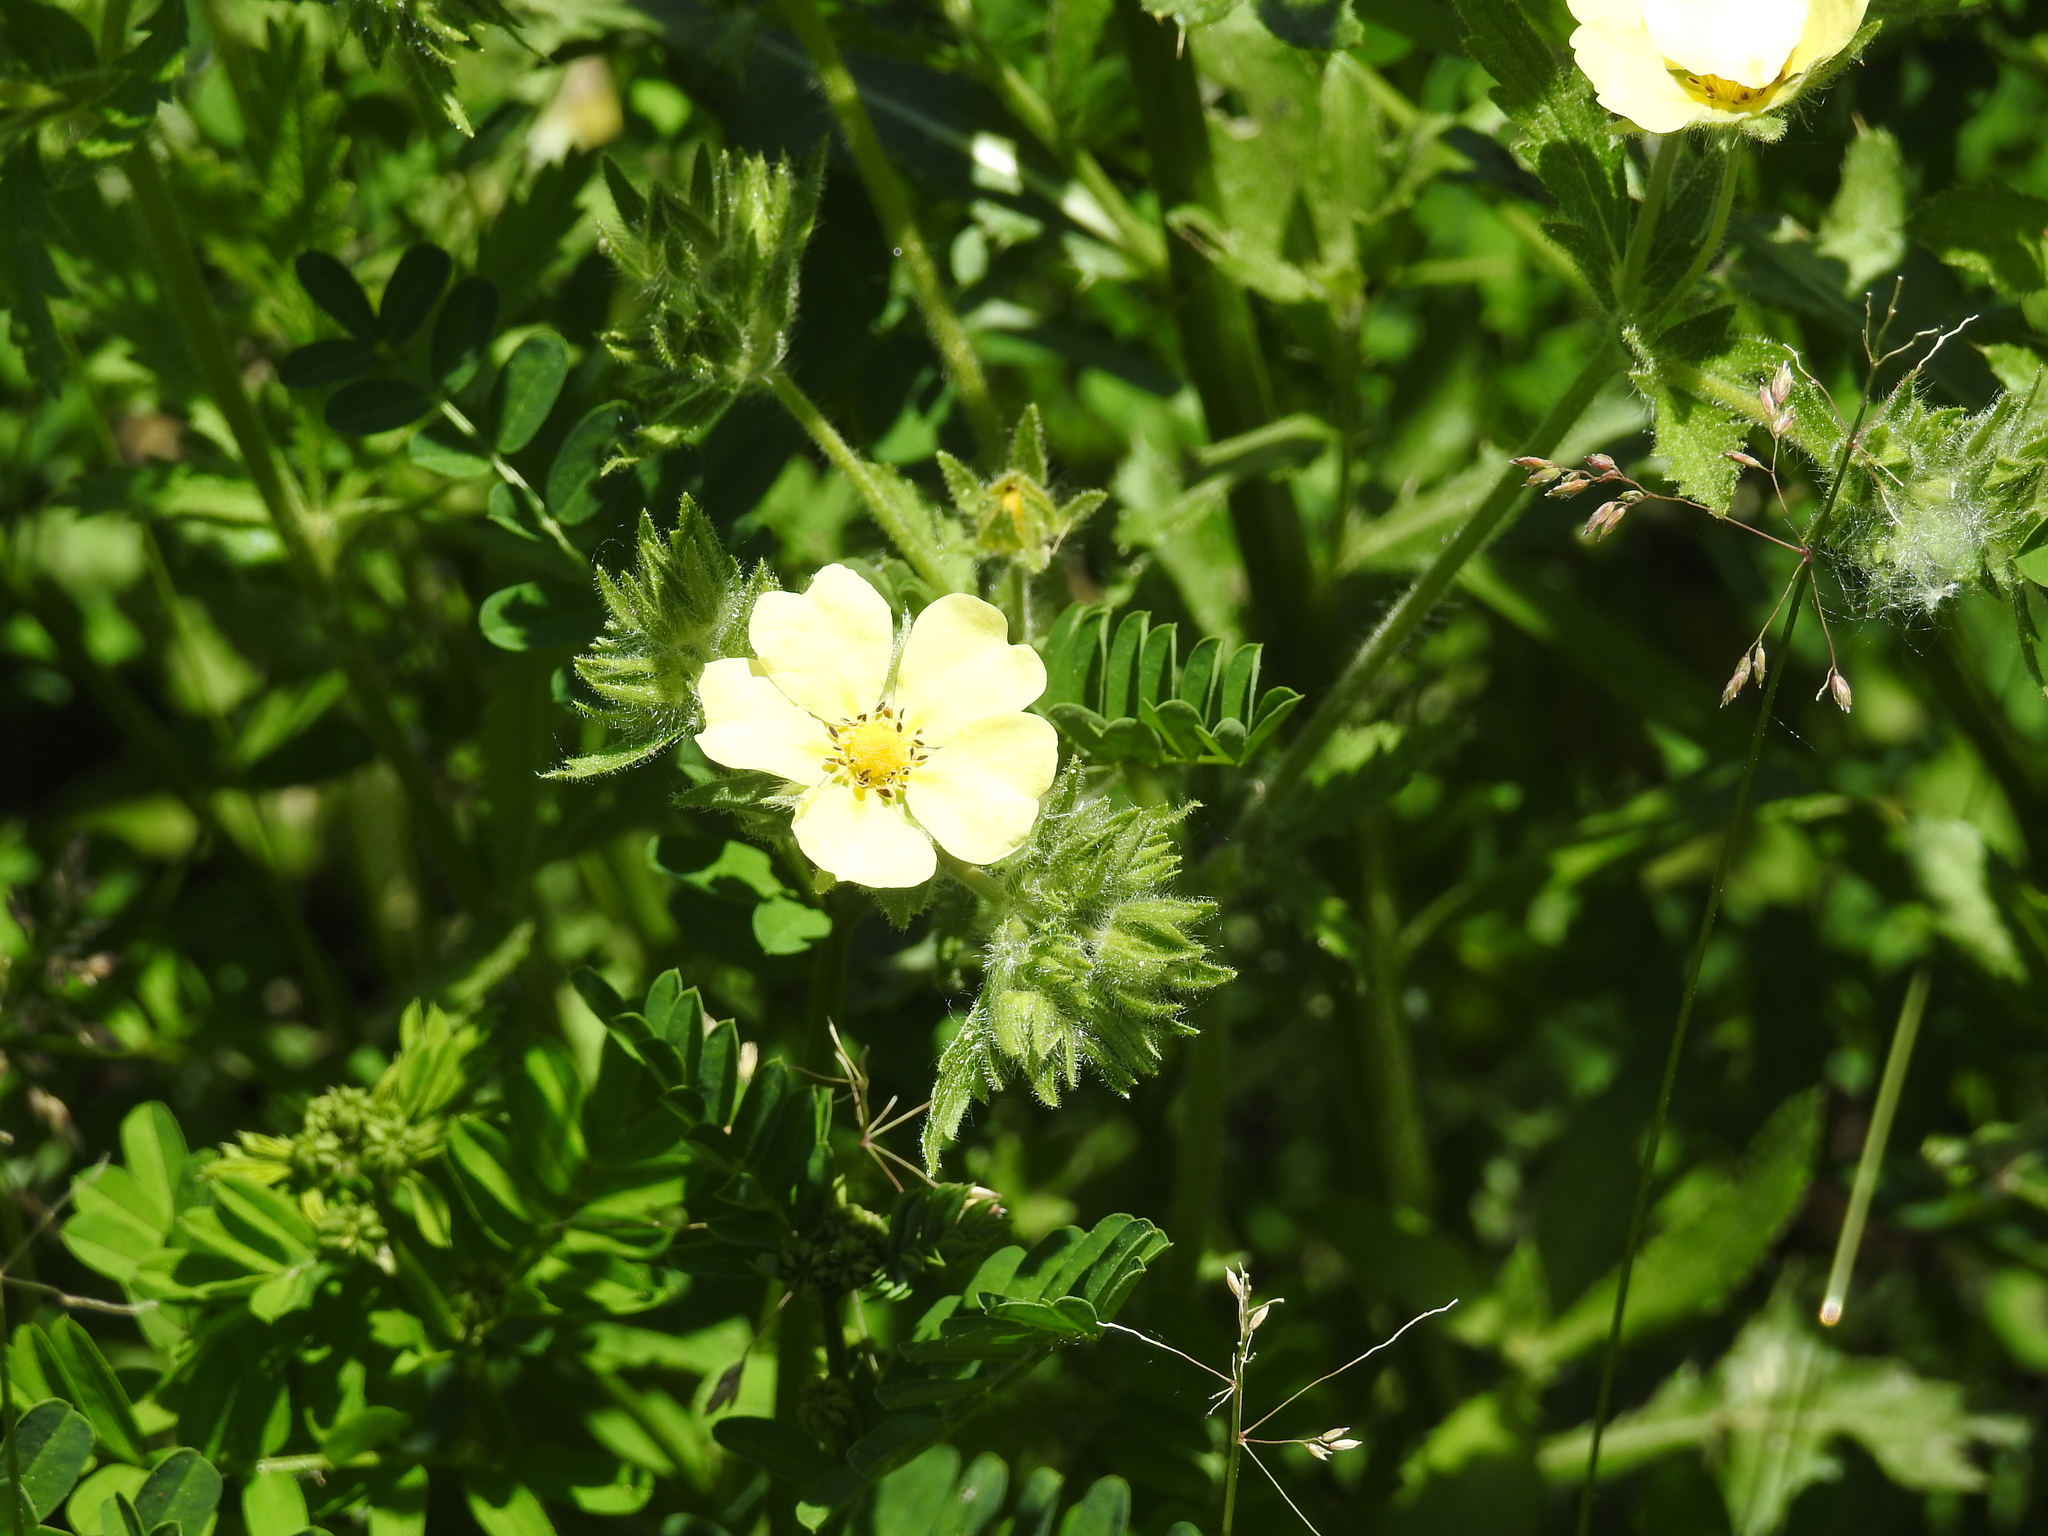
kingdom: Plantae
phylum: Tracheophyta
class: Magnoliopsida
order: Rosales
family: Rosaceae
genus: Potentilla
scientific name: Potentilla recta
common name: Sulphur cinquefoil
